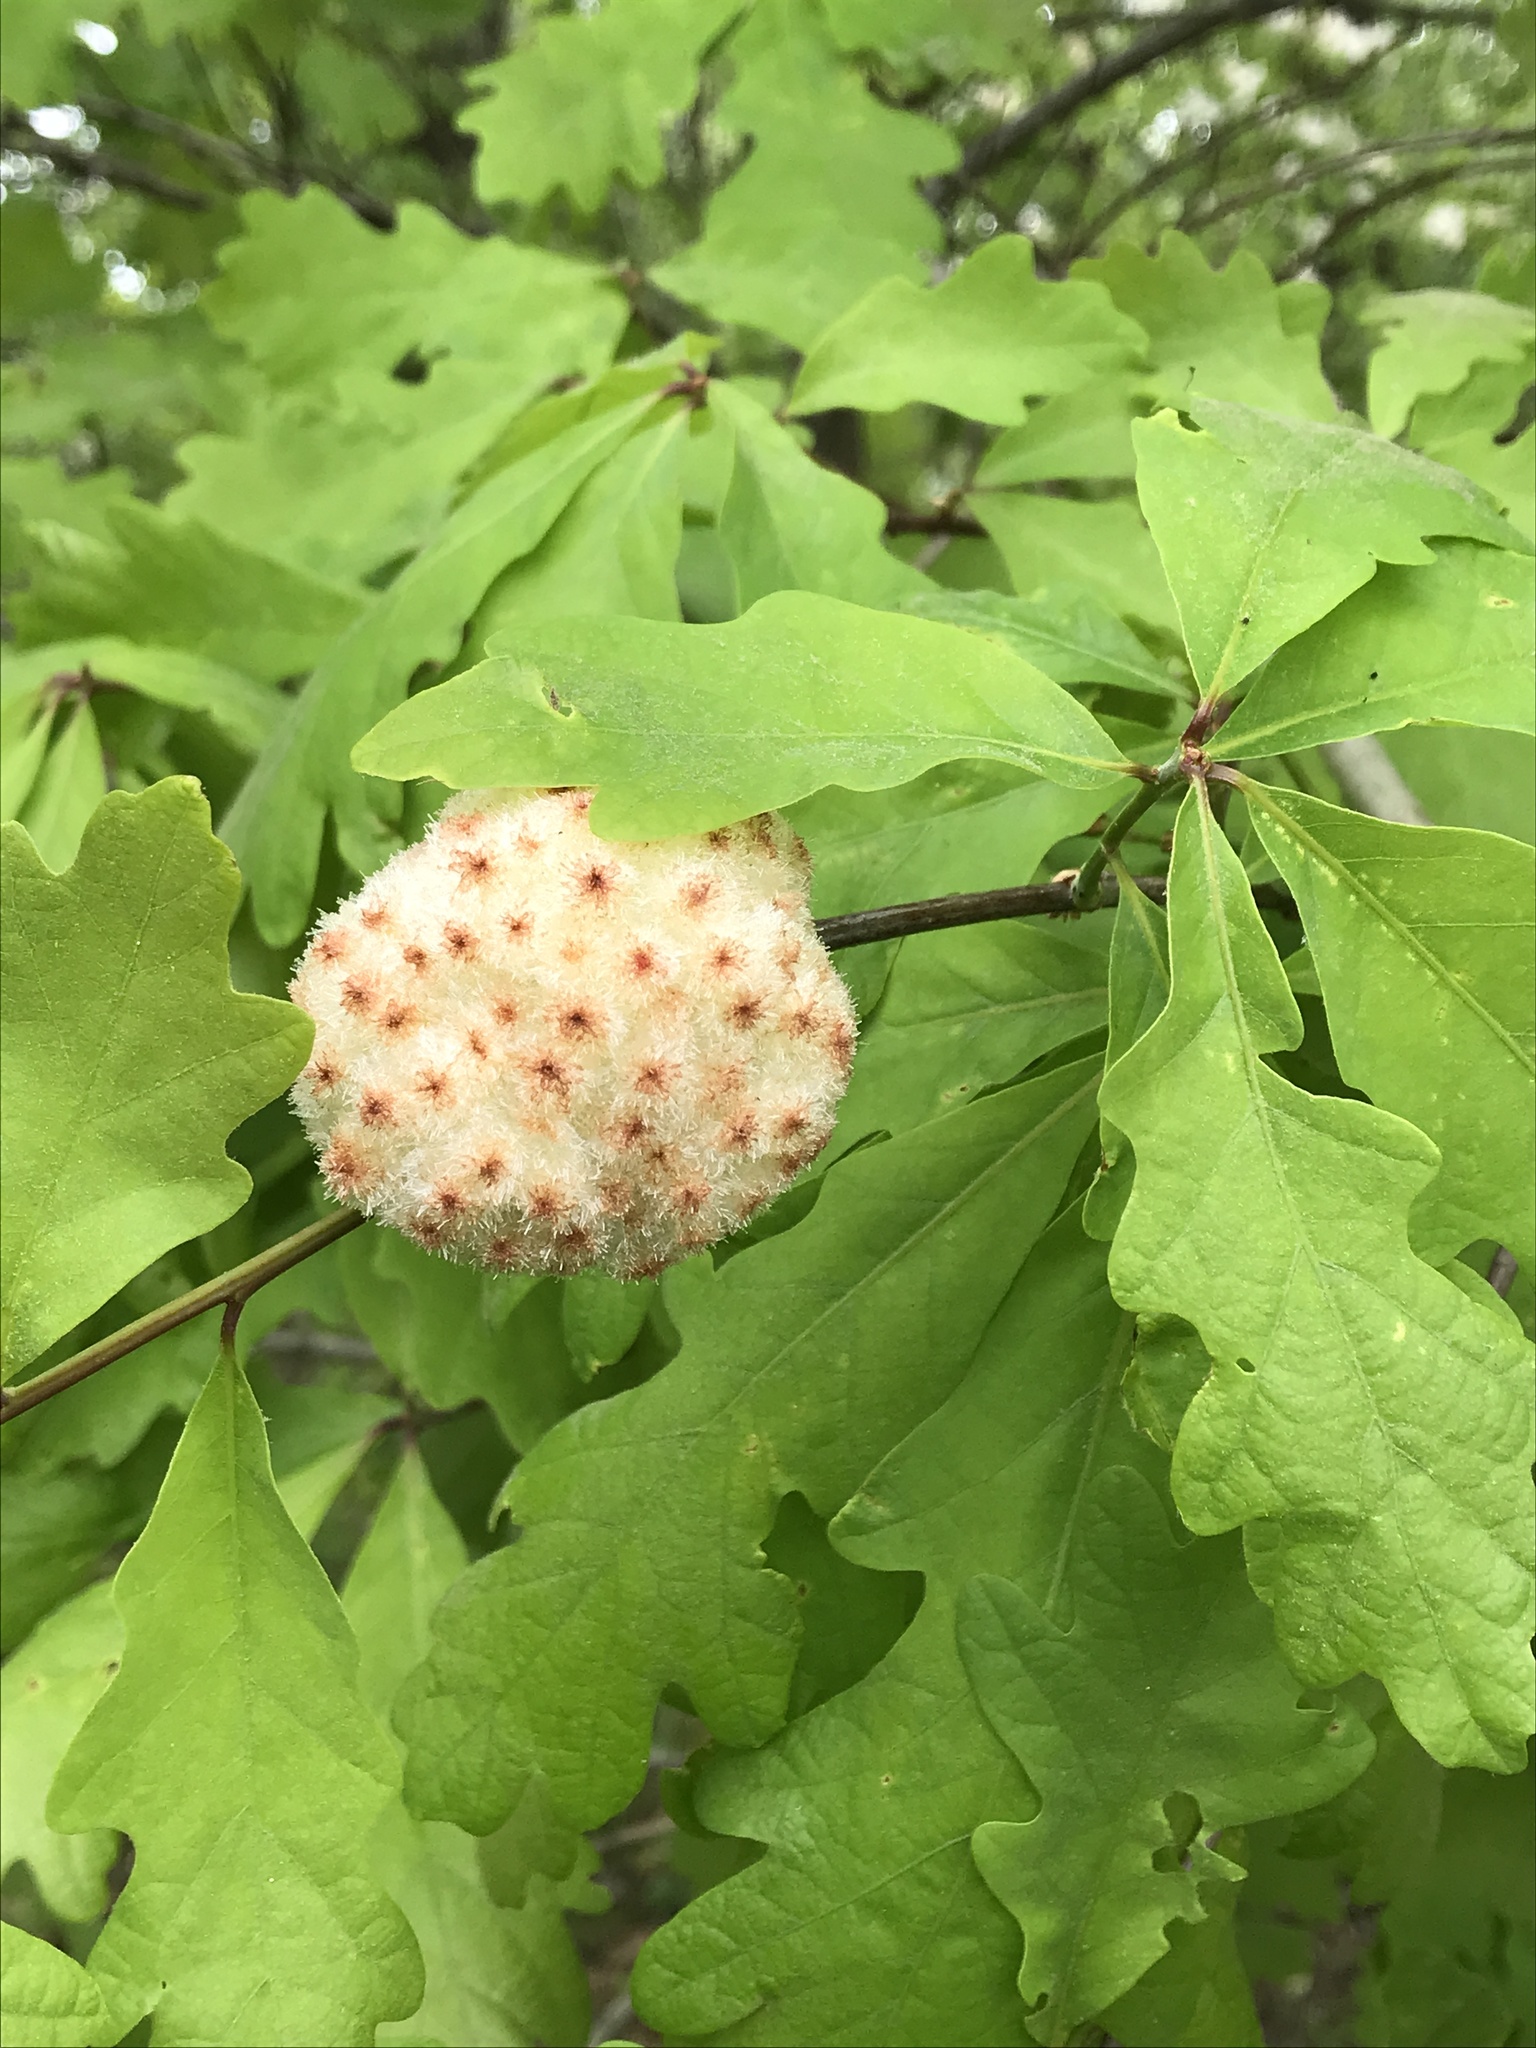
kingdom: Animalia
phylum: Arthropoda
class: Insecta
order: Hymenoptera
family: Cynipidae
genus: Callirhytis
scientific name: Callirhytis
